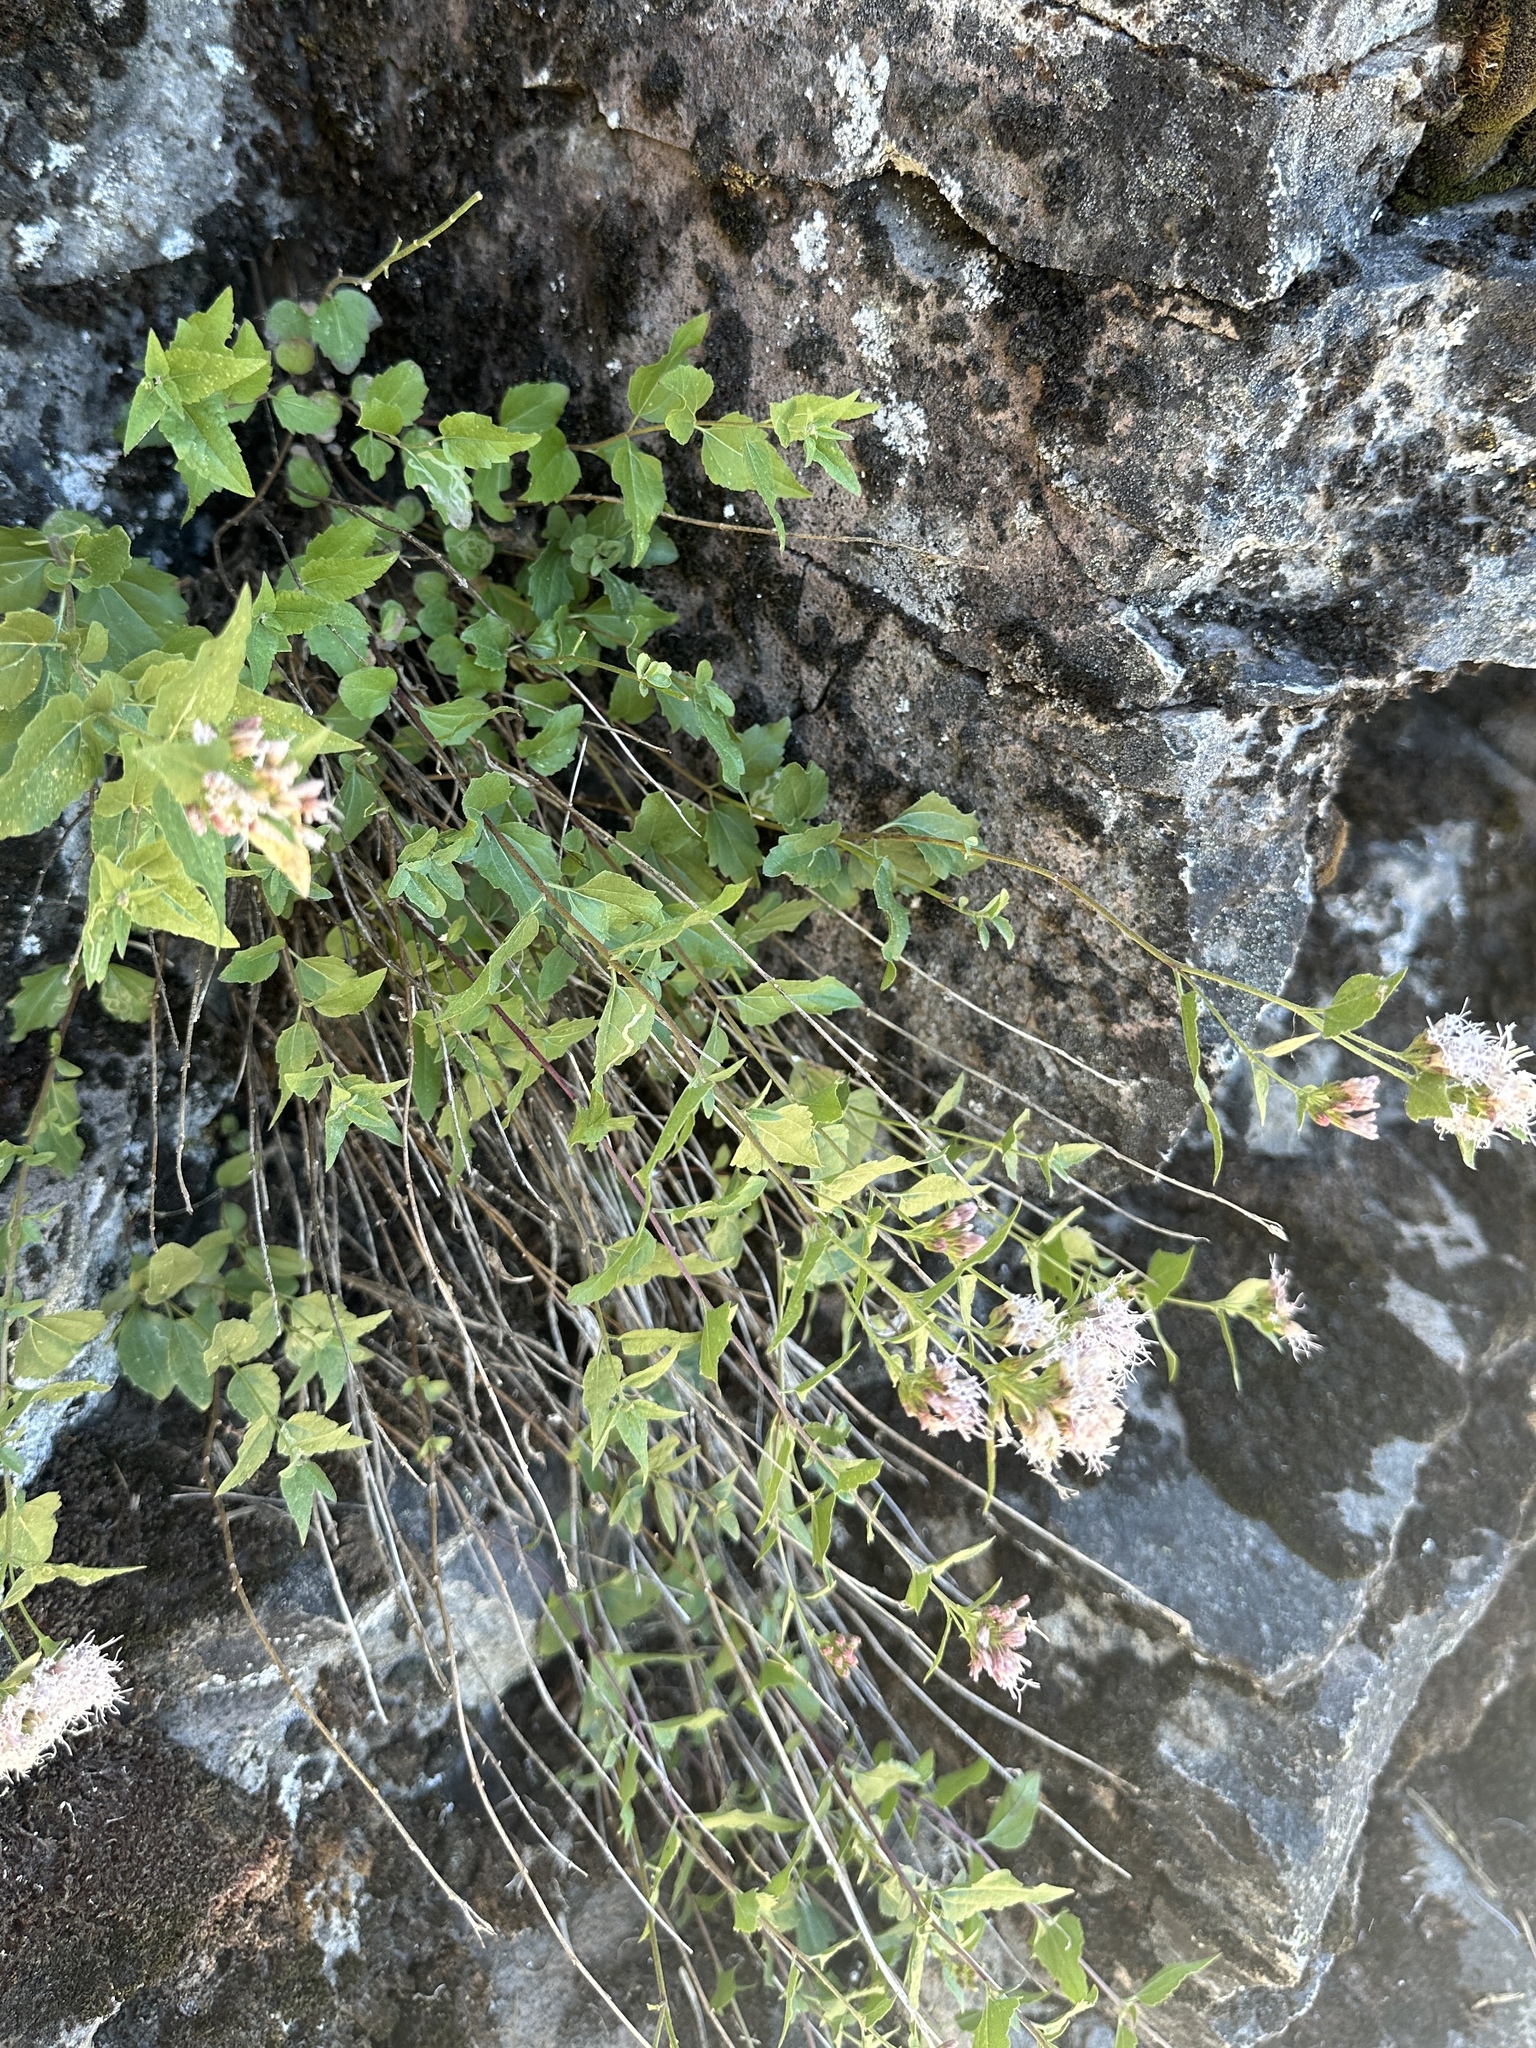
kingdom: Plantae
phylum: Tracheophyta
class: Magnoliopsida
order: Asterales
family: Asteraceae
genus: Ageratina
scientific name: Ageratina occidentalis
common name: Western snakeroot
